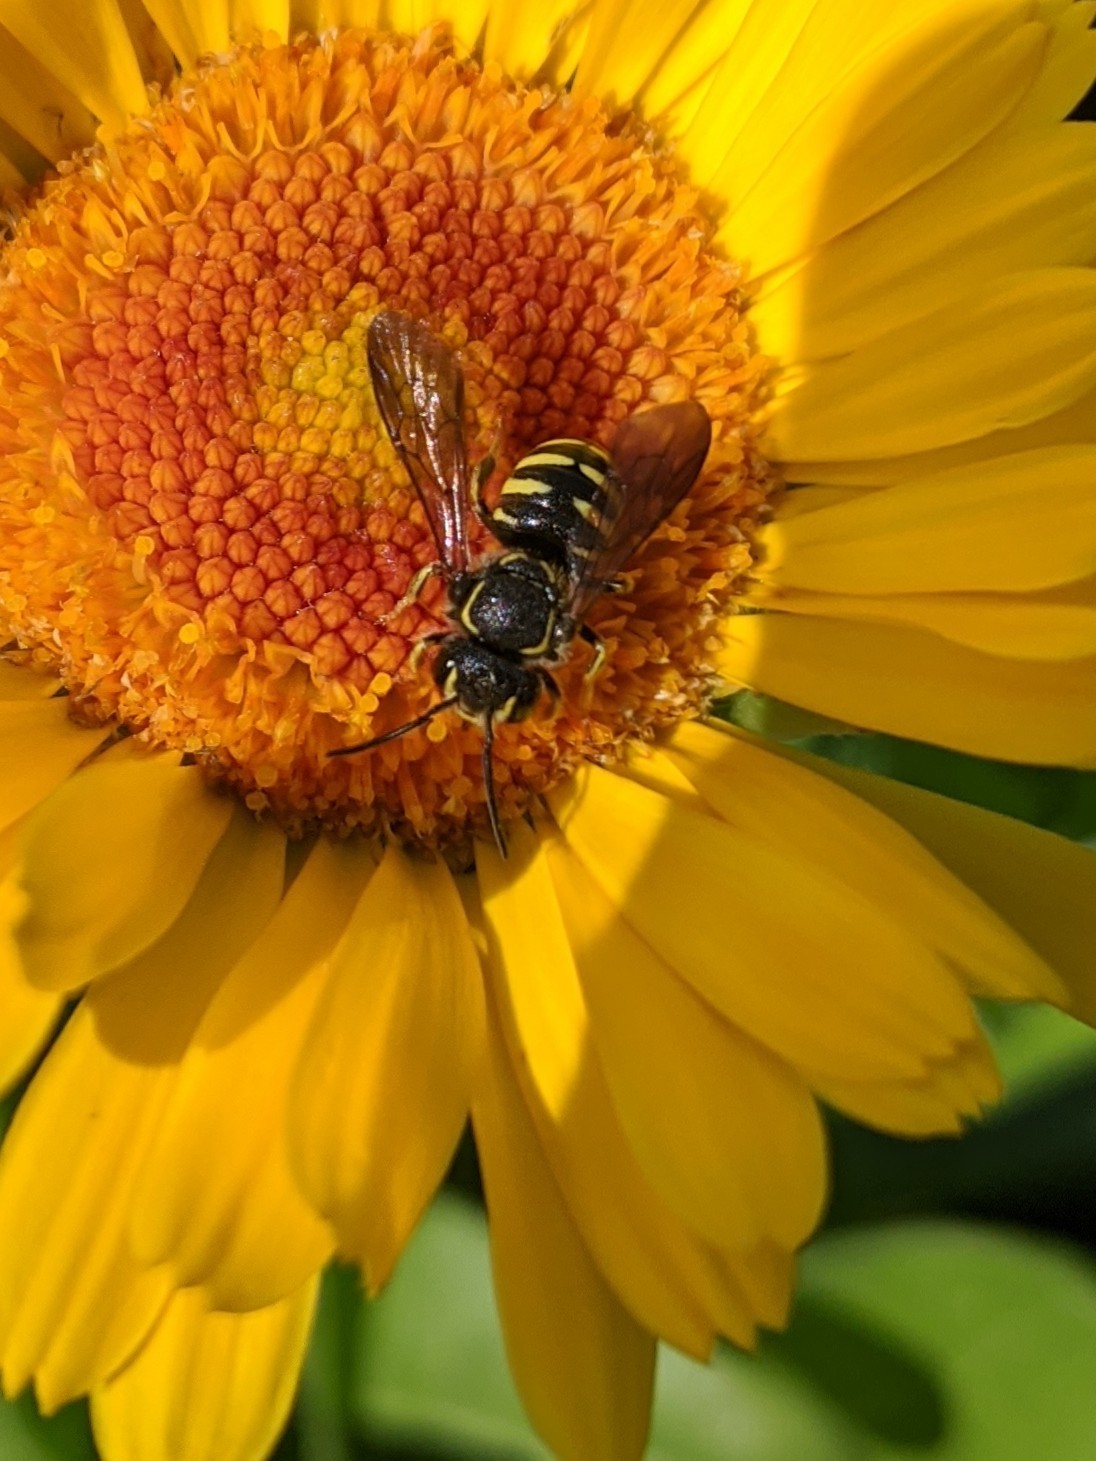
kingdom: Animalia
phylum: Arthropoda
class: Insecta
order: Hymenoptera
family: Megachilidae
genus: Paranthidium
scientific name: Paranthidium jugatorium
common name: Sunflower burrowing-resin bee
